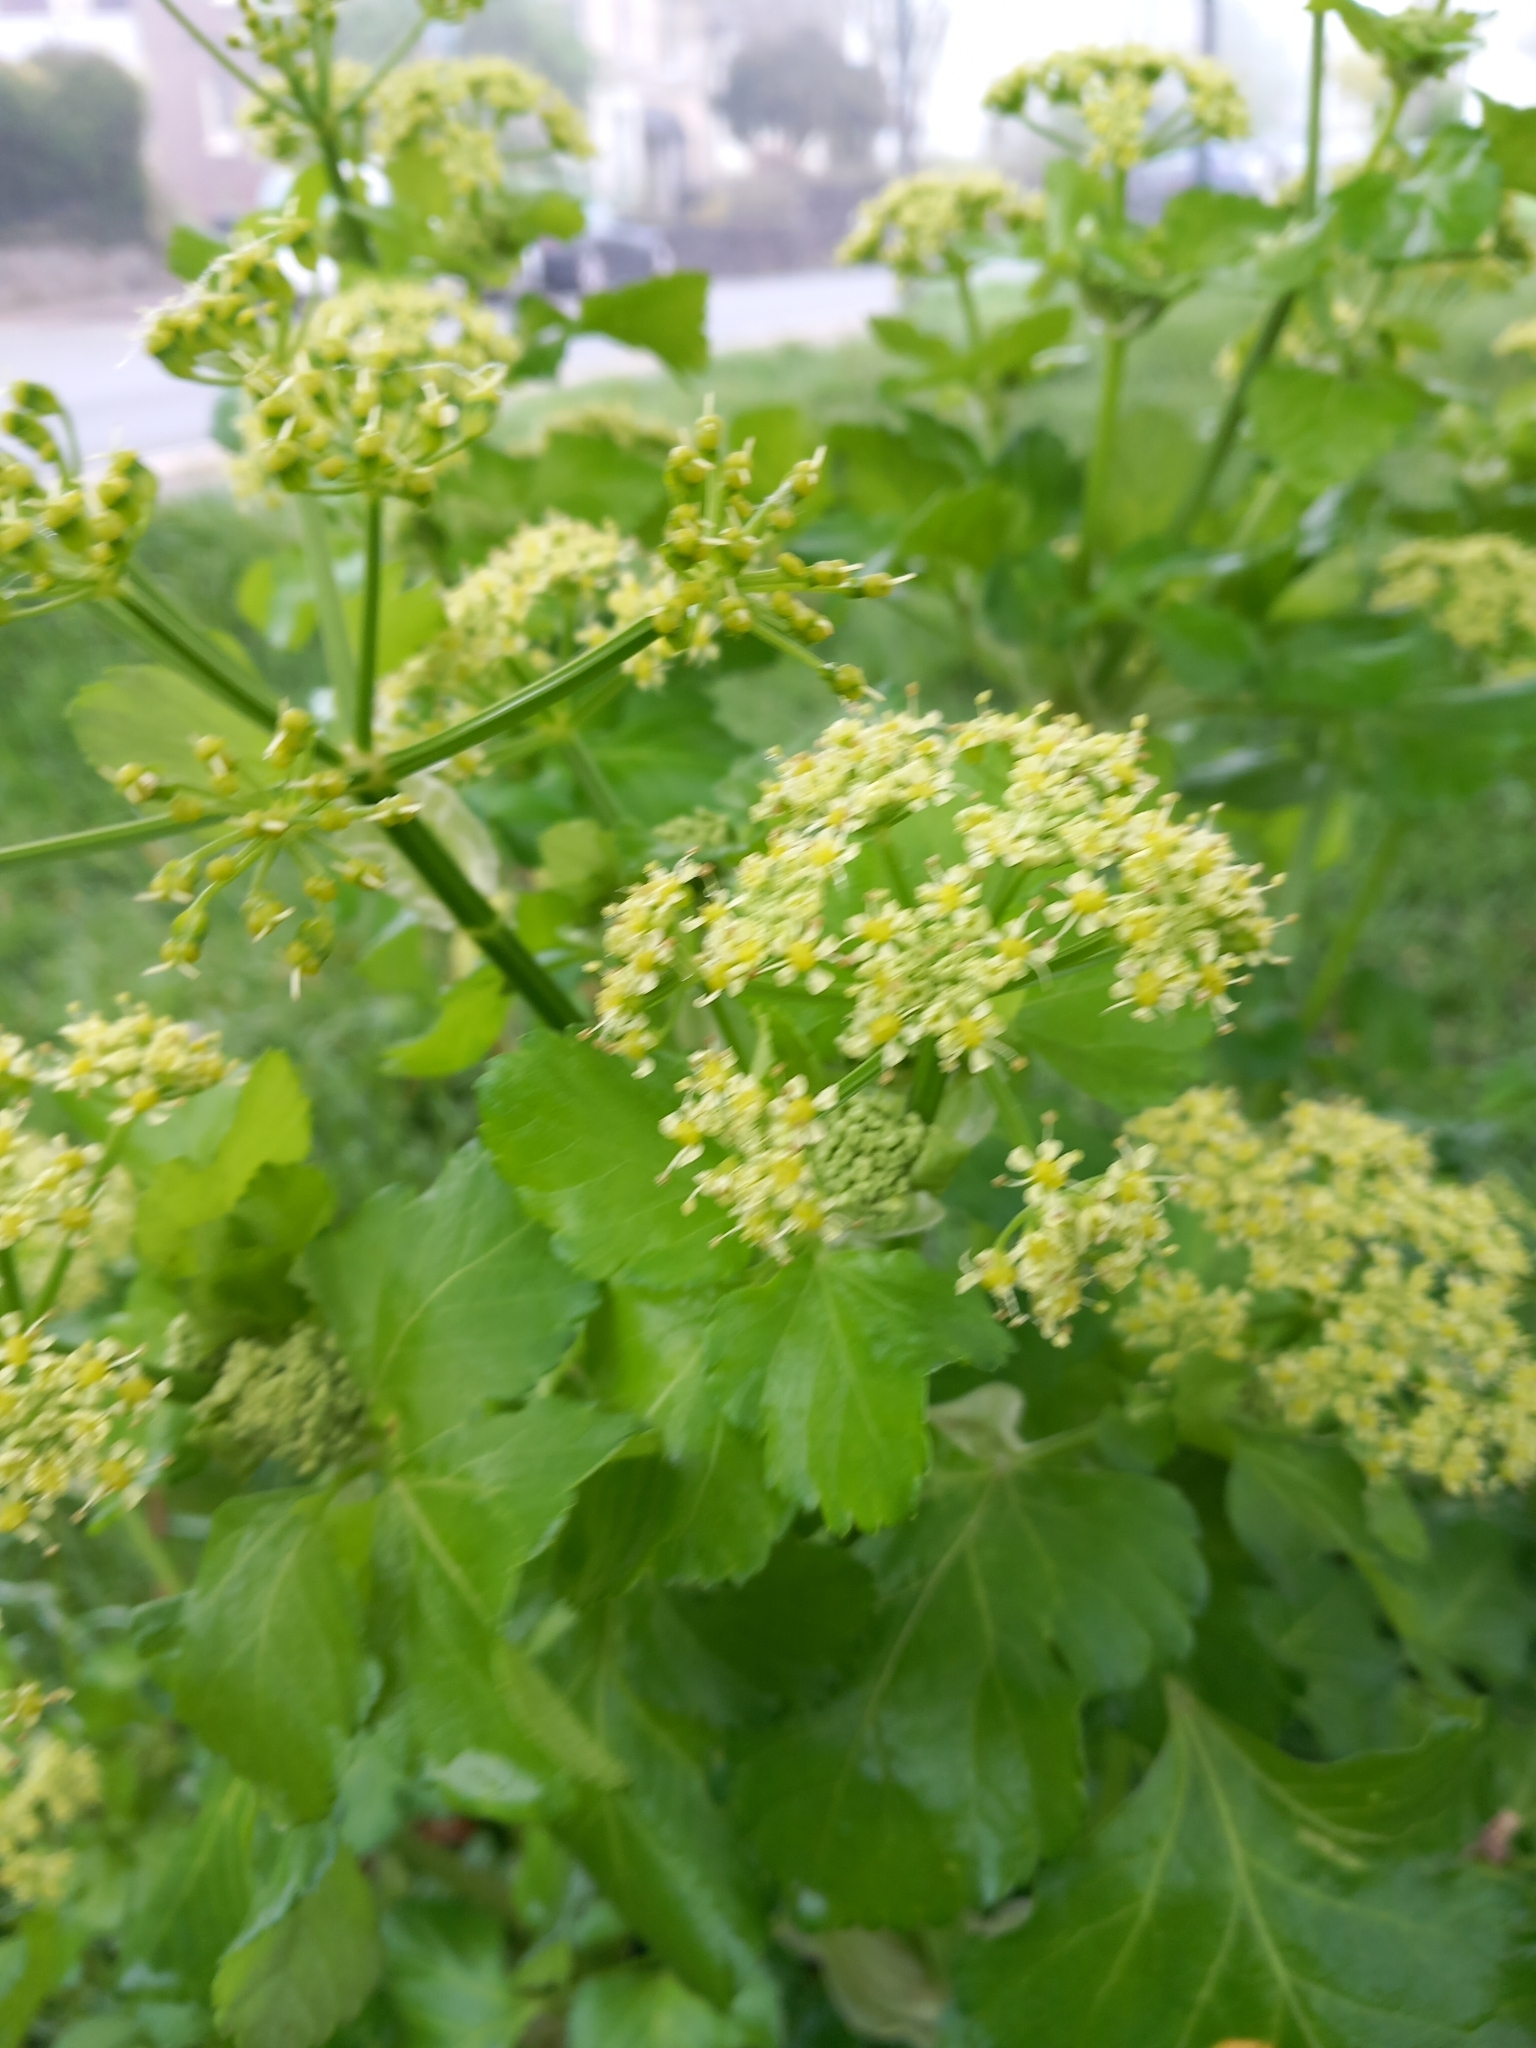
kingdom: Plantae
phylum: Tracheophyta
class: Magnoliopsida
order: Apiales
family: Apiaceae
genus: Smyrnium
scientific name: Smyrnium olusatrum
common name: Alexanders
